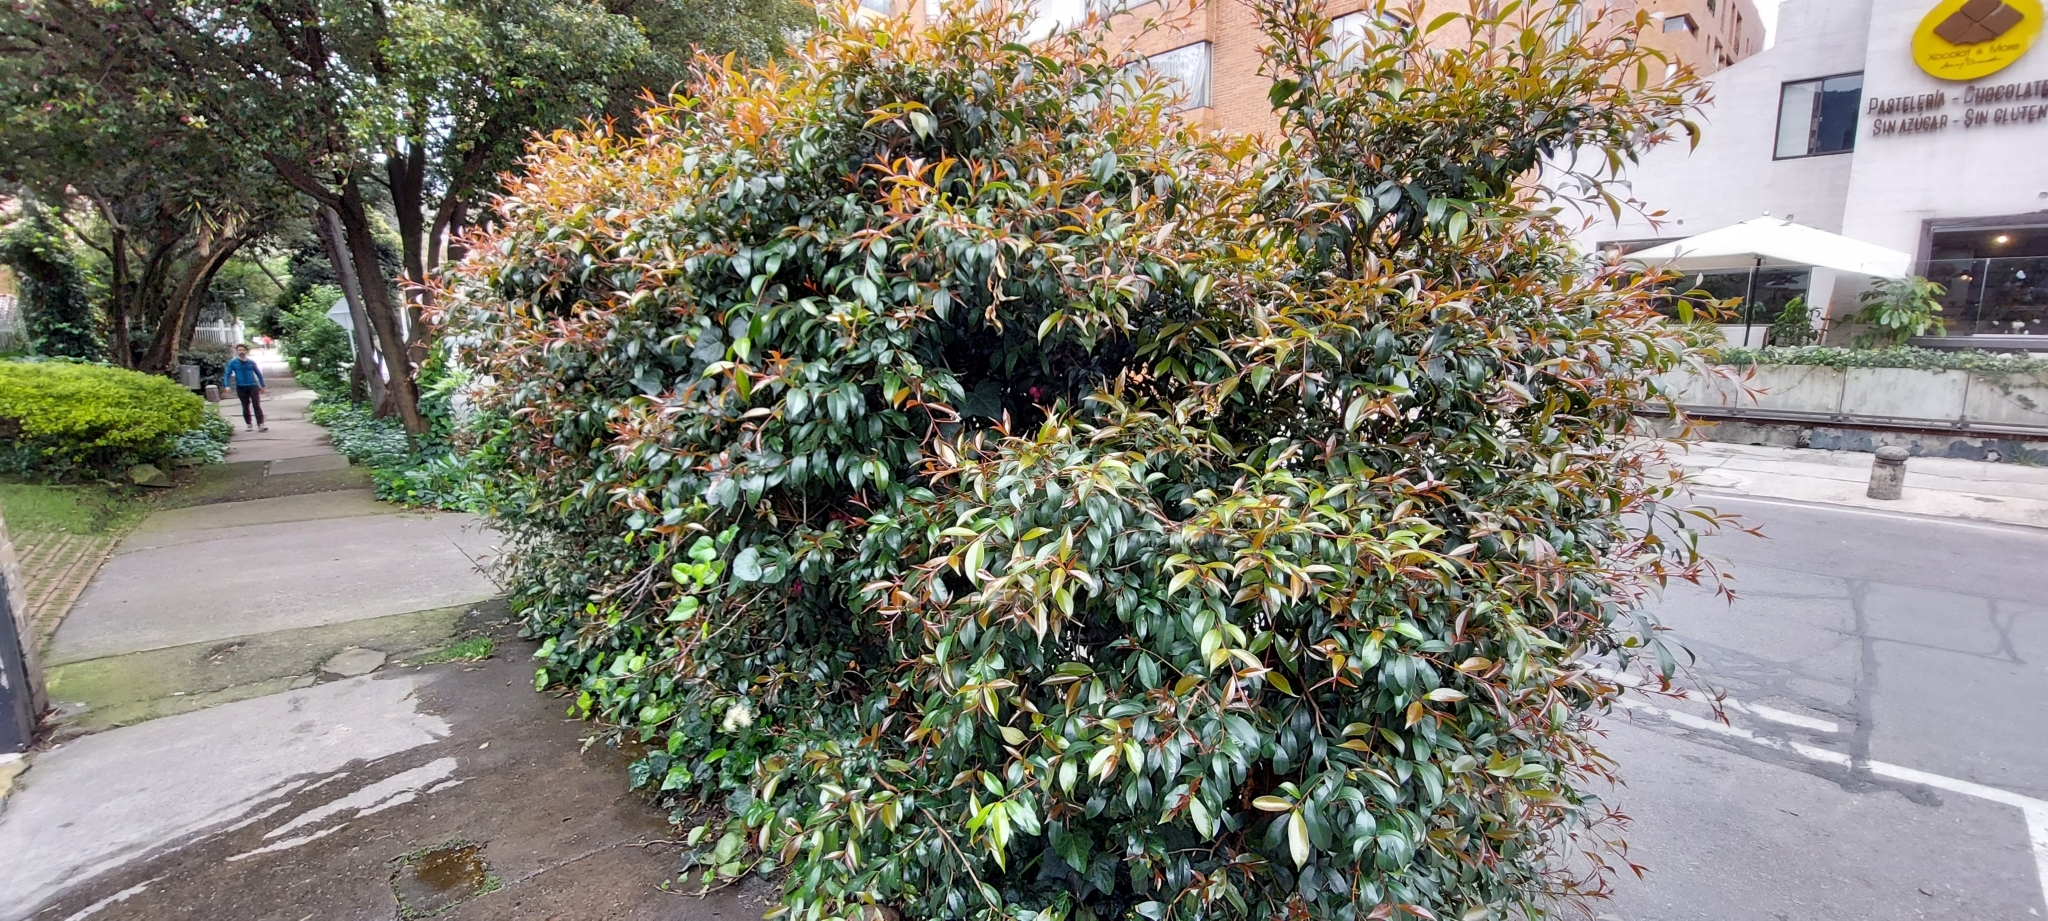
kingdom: Plantae
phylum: Tracheophyta
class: Magnoliopsida
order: Myrtales
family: Myrtaceae
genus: Syzygium
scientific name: Syzygium paniculatum
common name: Magenta lilly-pilly
